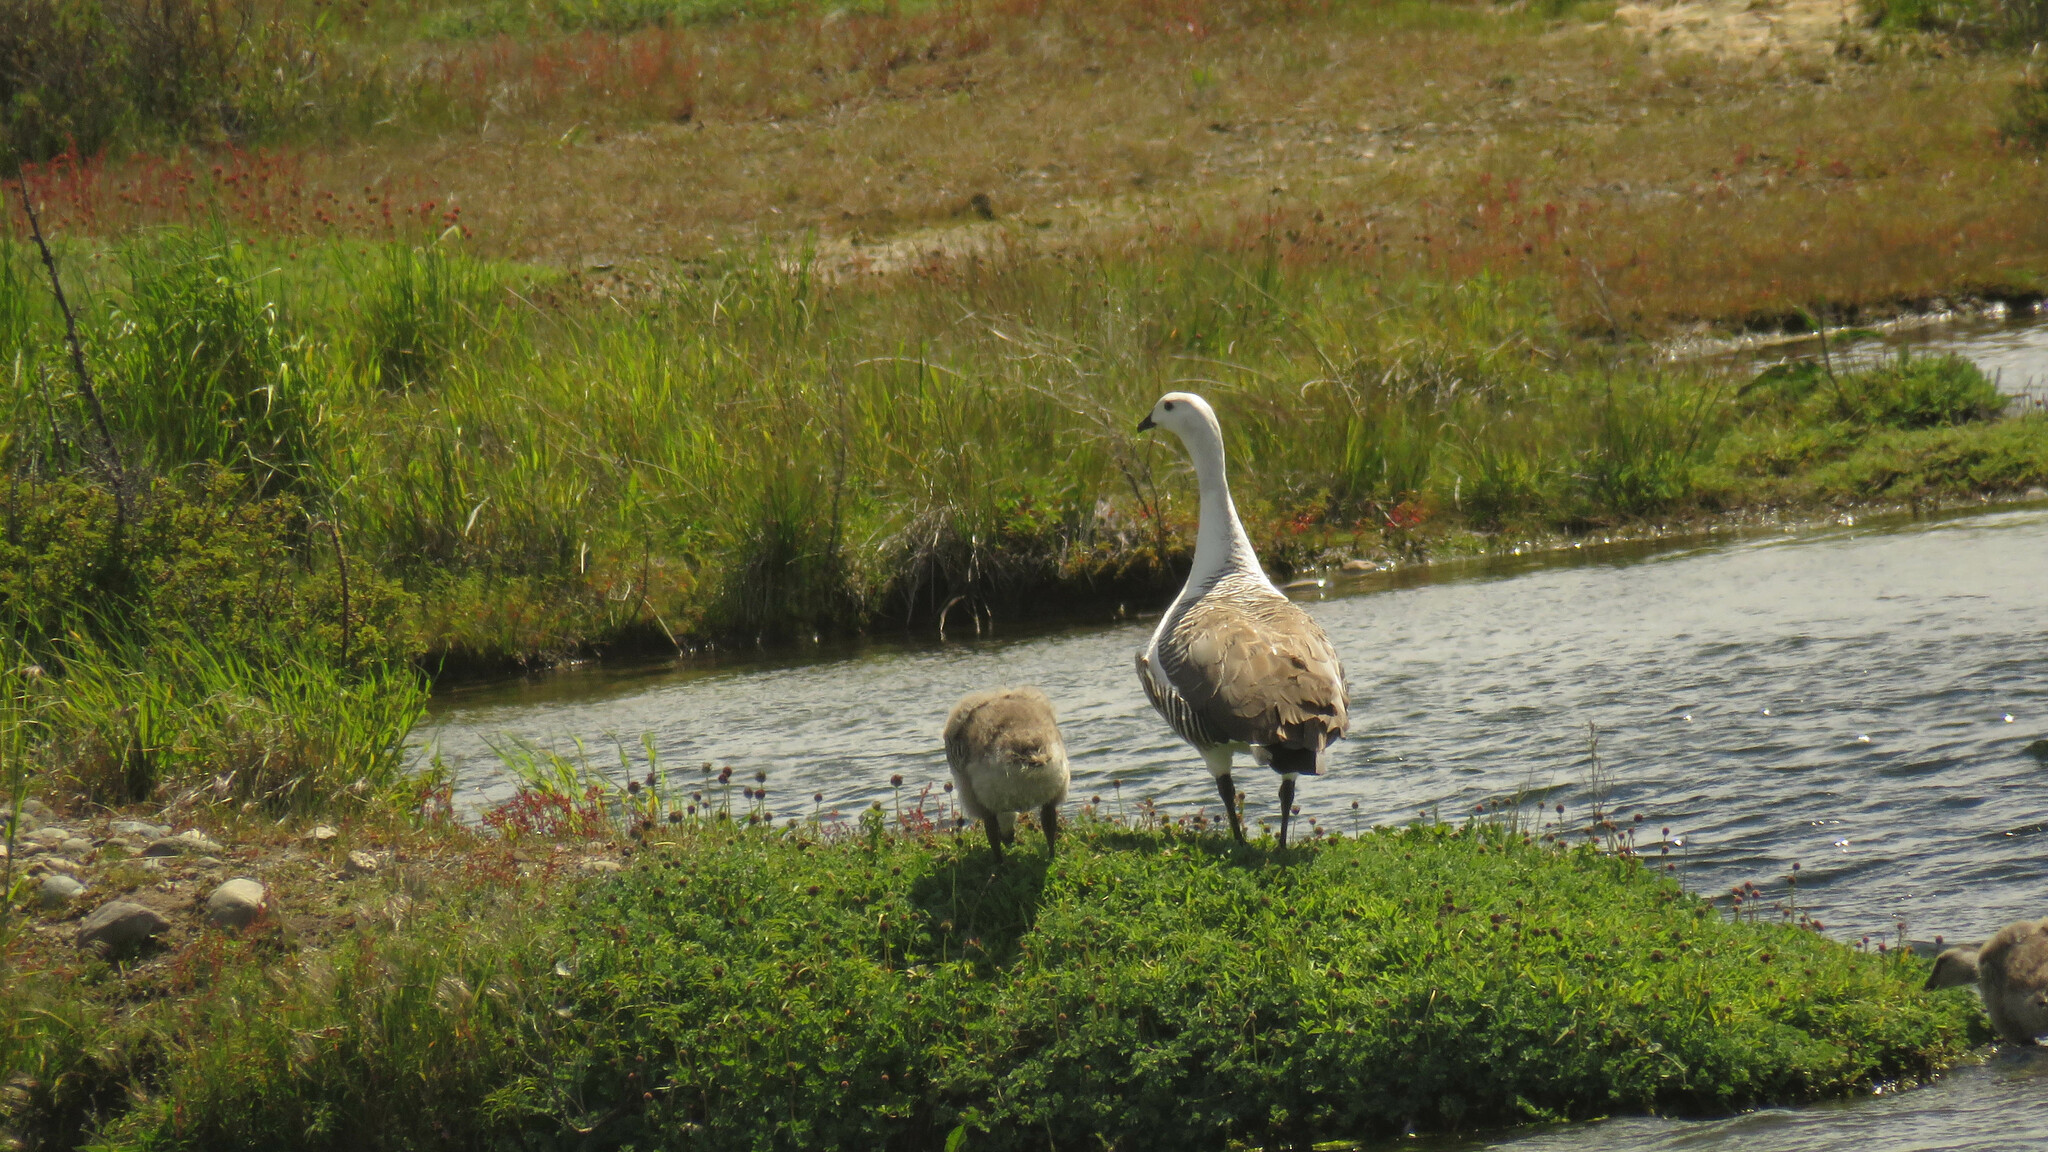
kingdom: Animalia
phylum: Chordata
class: Aves
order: Anseriformes
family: Anatidae
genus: Chloephaga
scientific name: Chloephaga picta
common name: Upland goose
